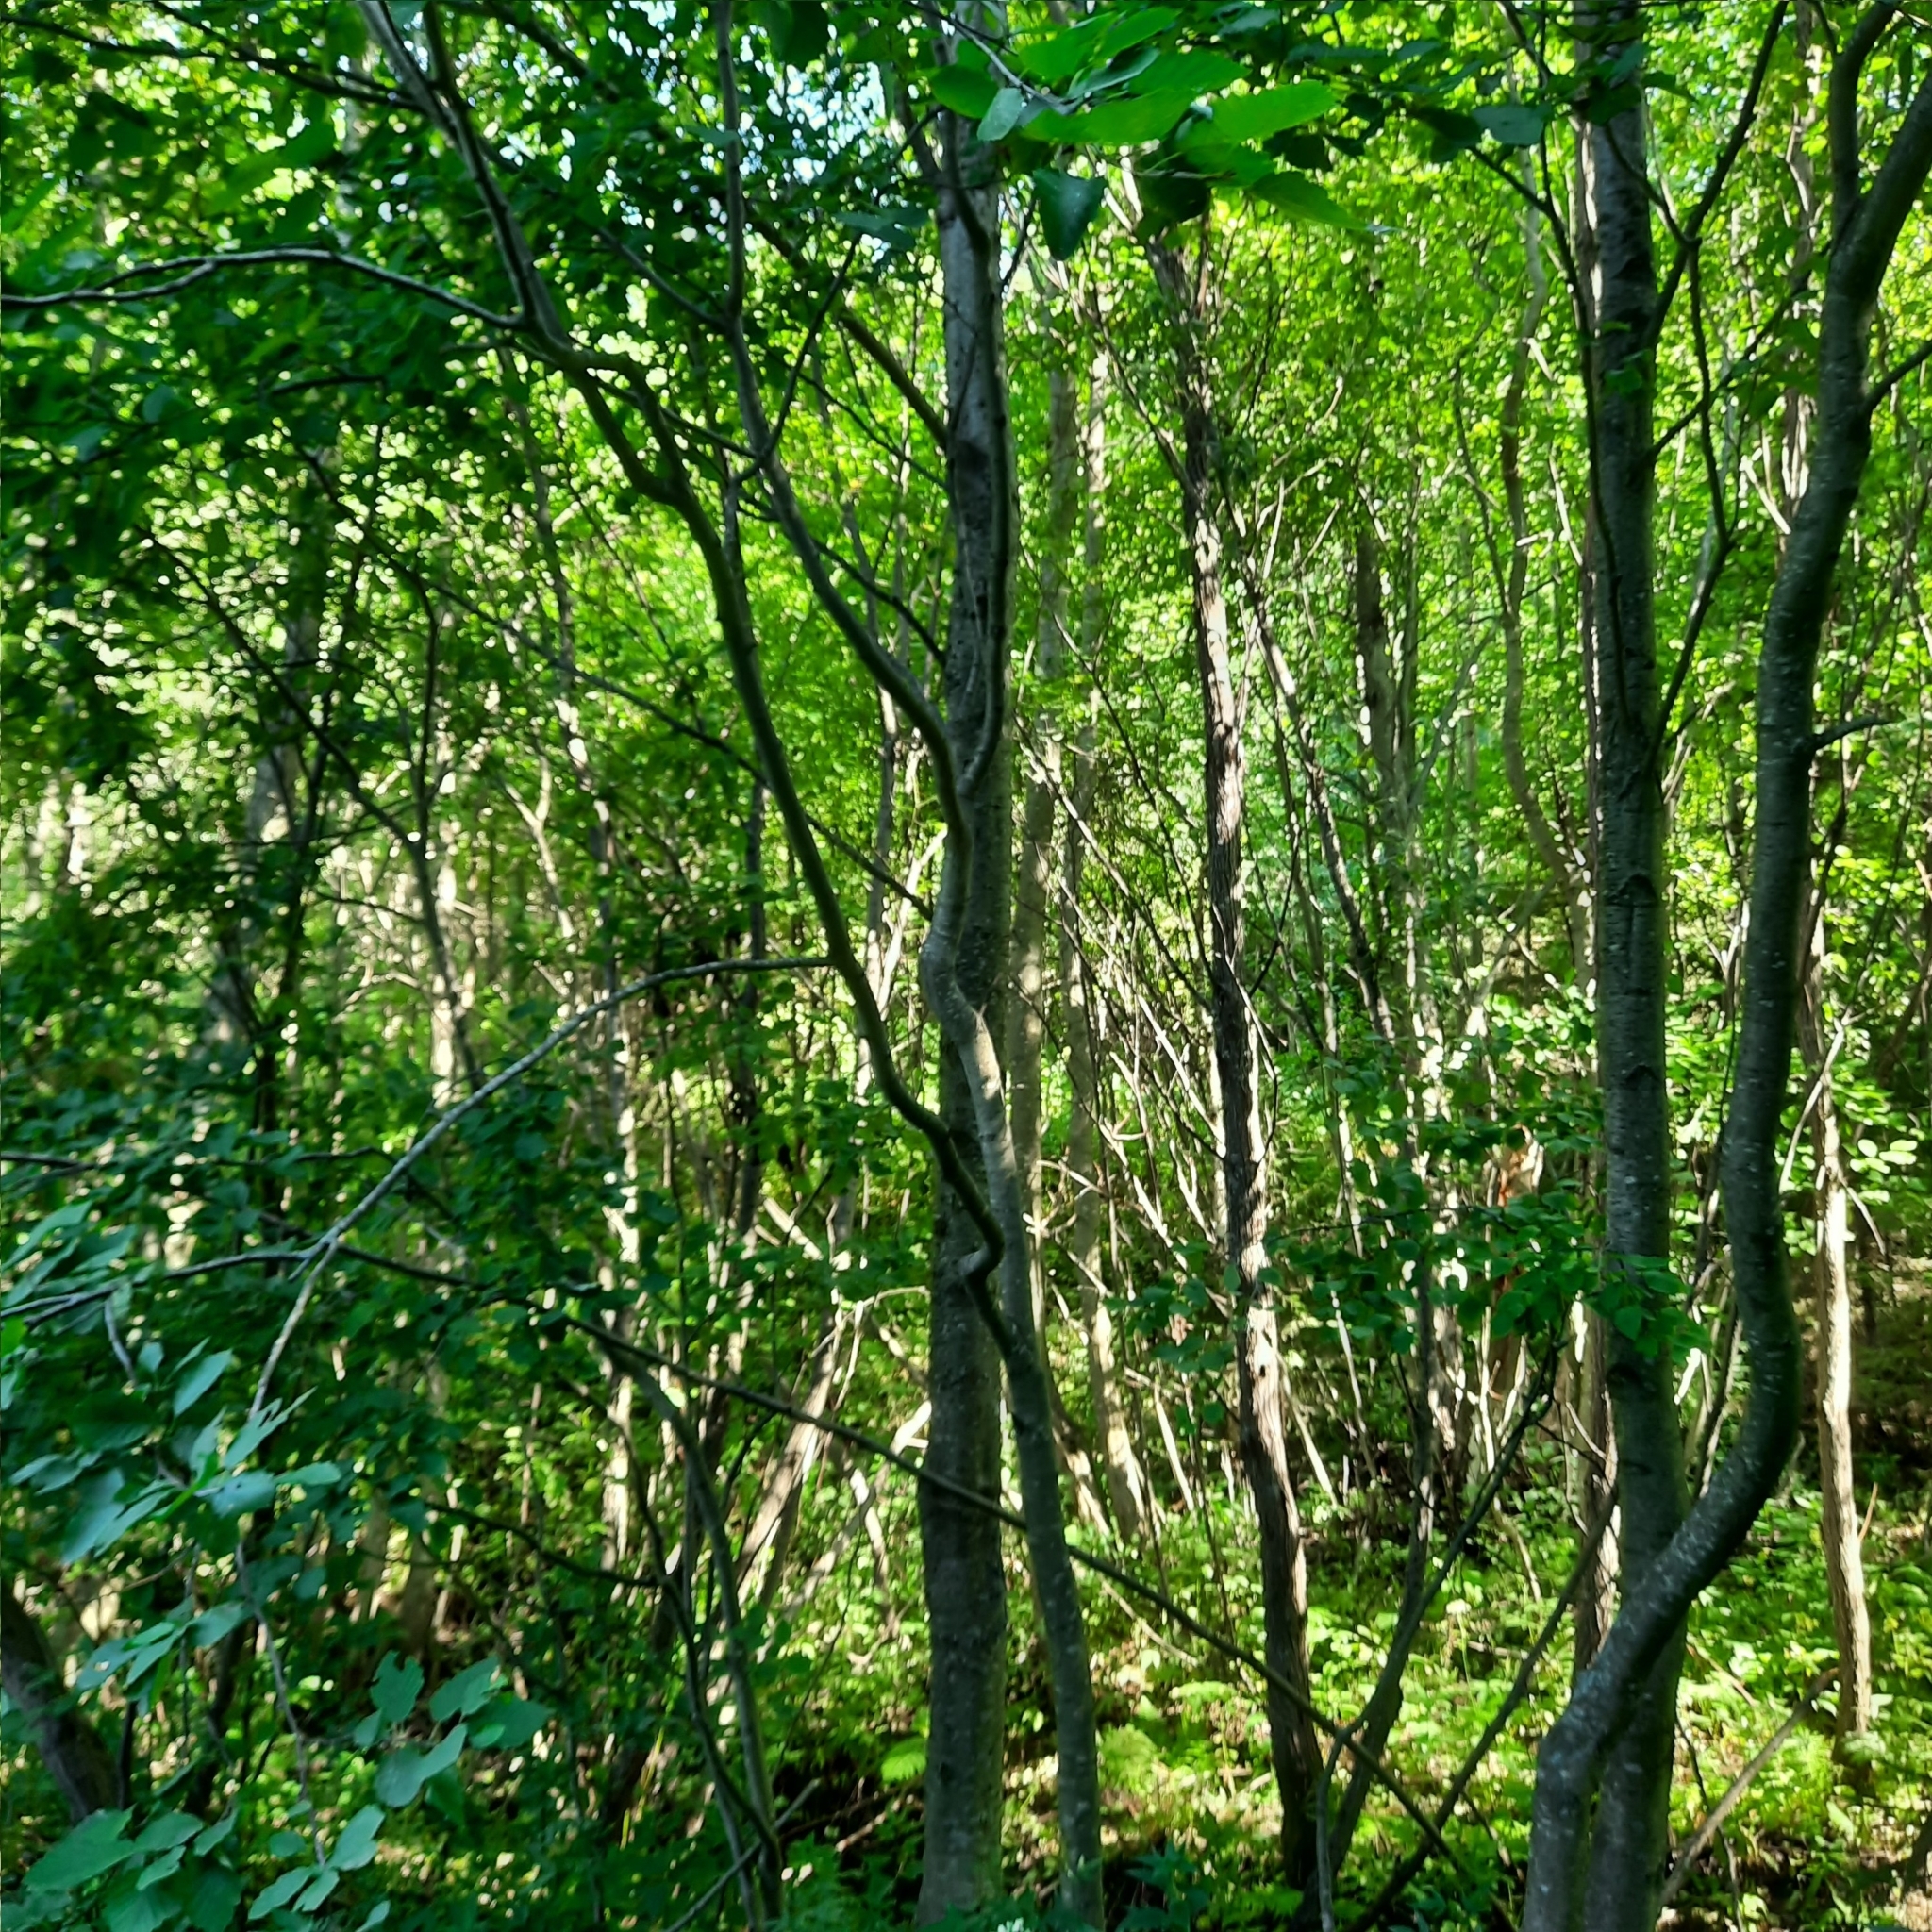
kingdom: Plantae
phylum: Tracheophyta
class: Magnoliopsida
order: Fagales
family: Betulaceae
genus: Alnus
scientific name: Alnus incana
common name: Grey alder
